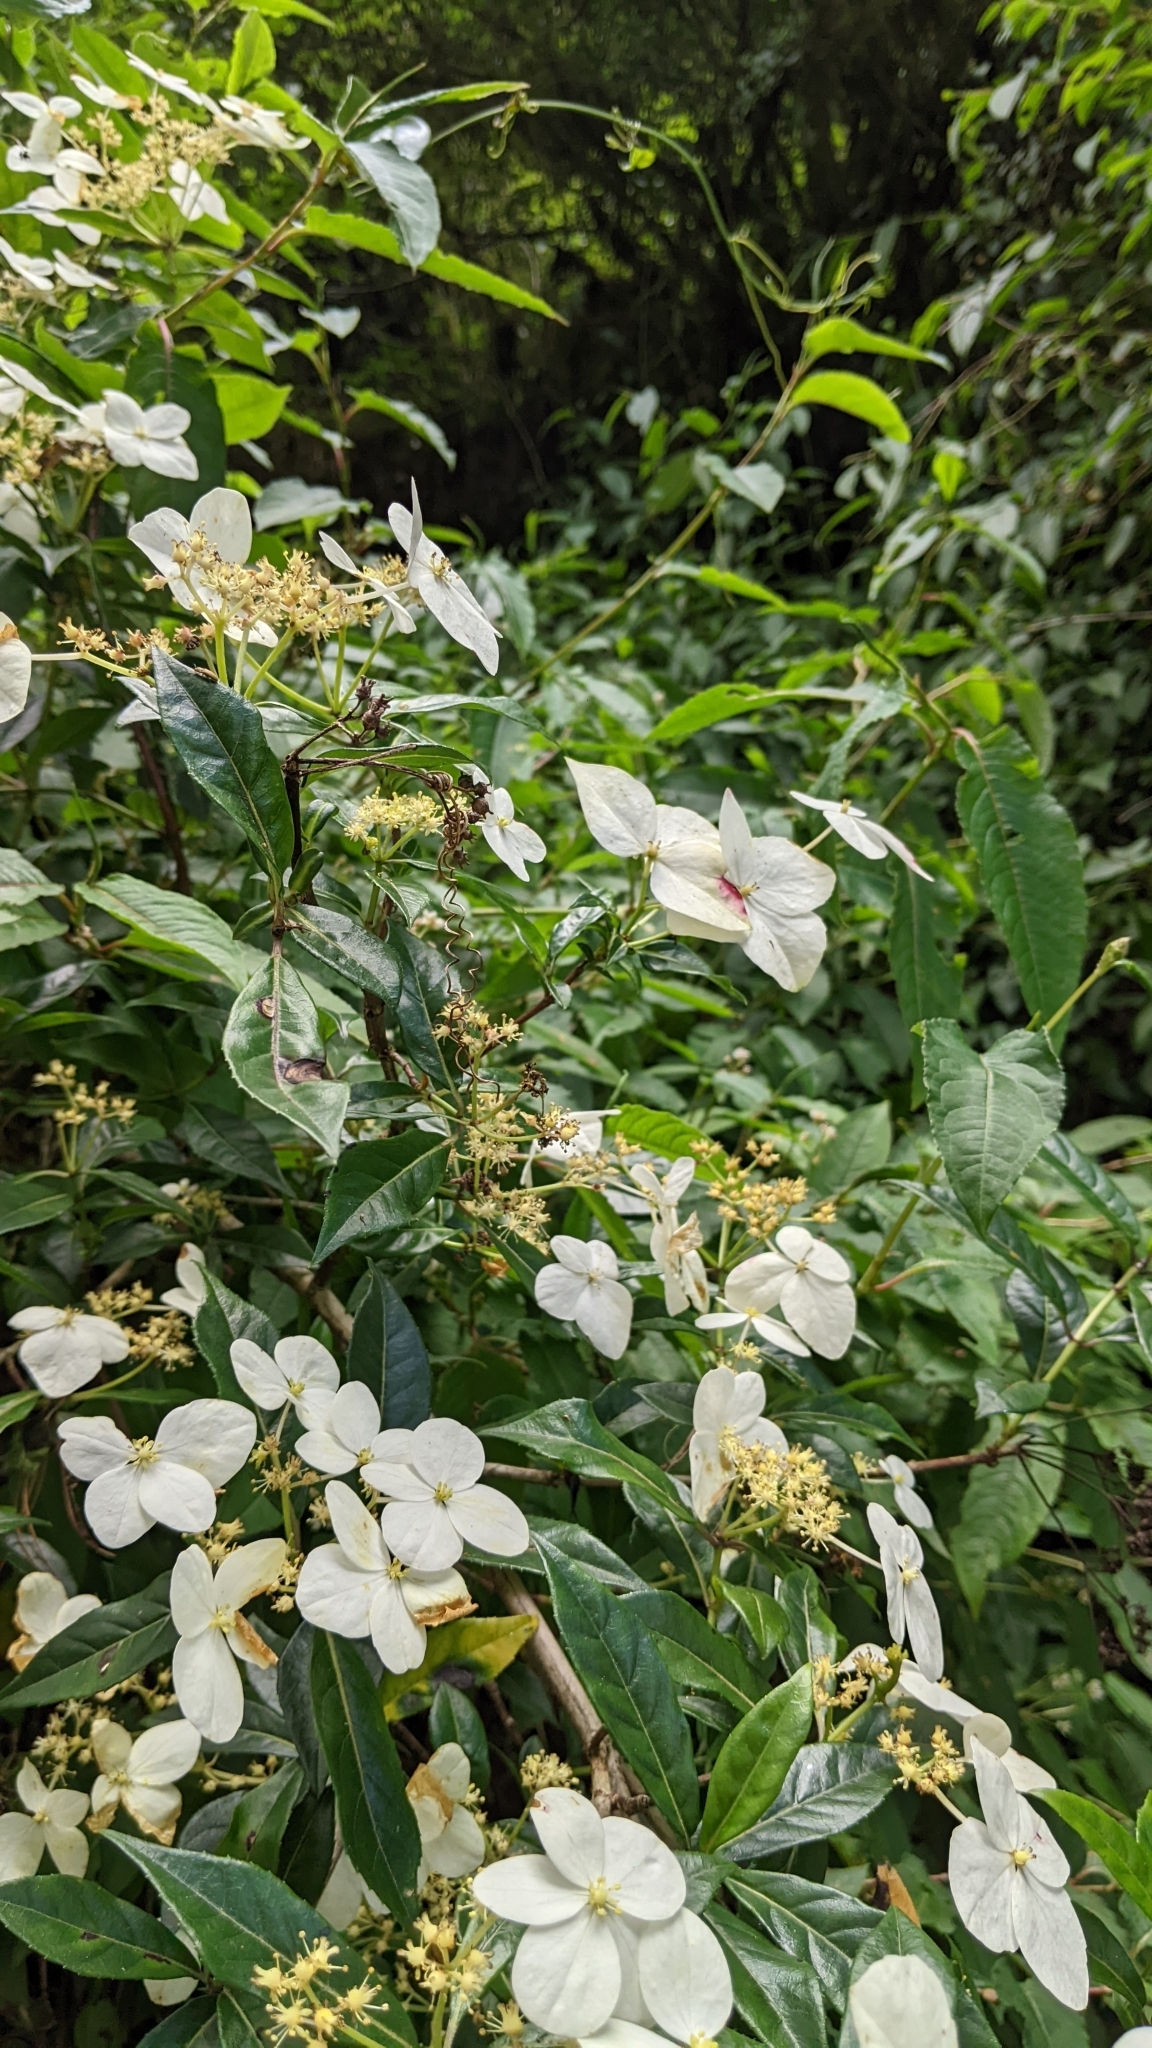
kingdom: Plantae
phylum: Tracheophyta
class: Magnoliopsida
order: Cornales
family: Hydrangeaceae
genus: Hydrangea
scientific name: Hydrangea chinensis
